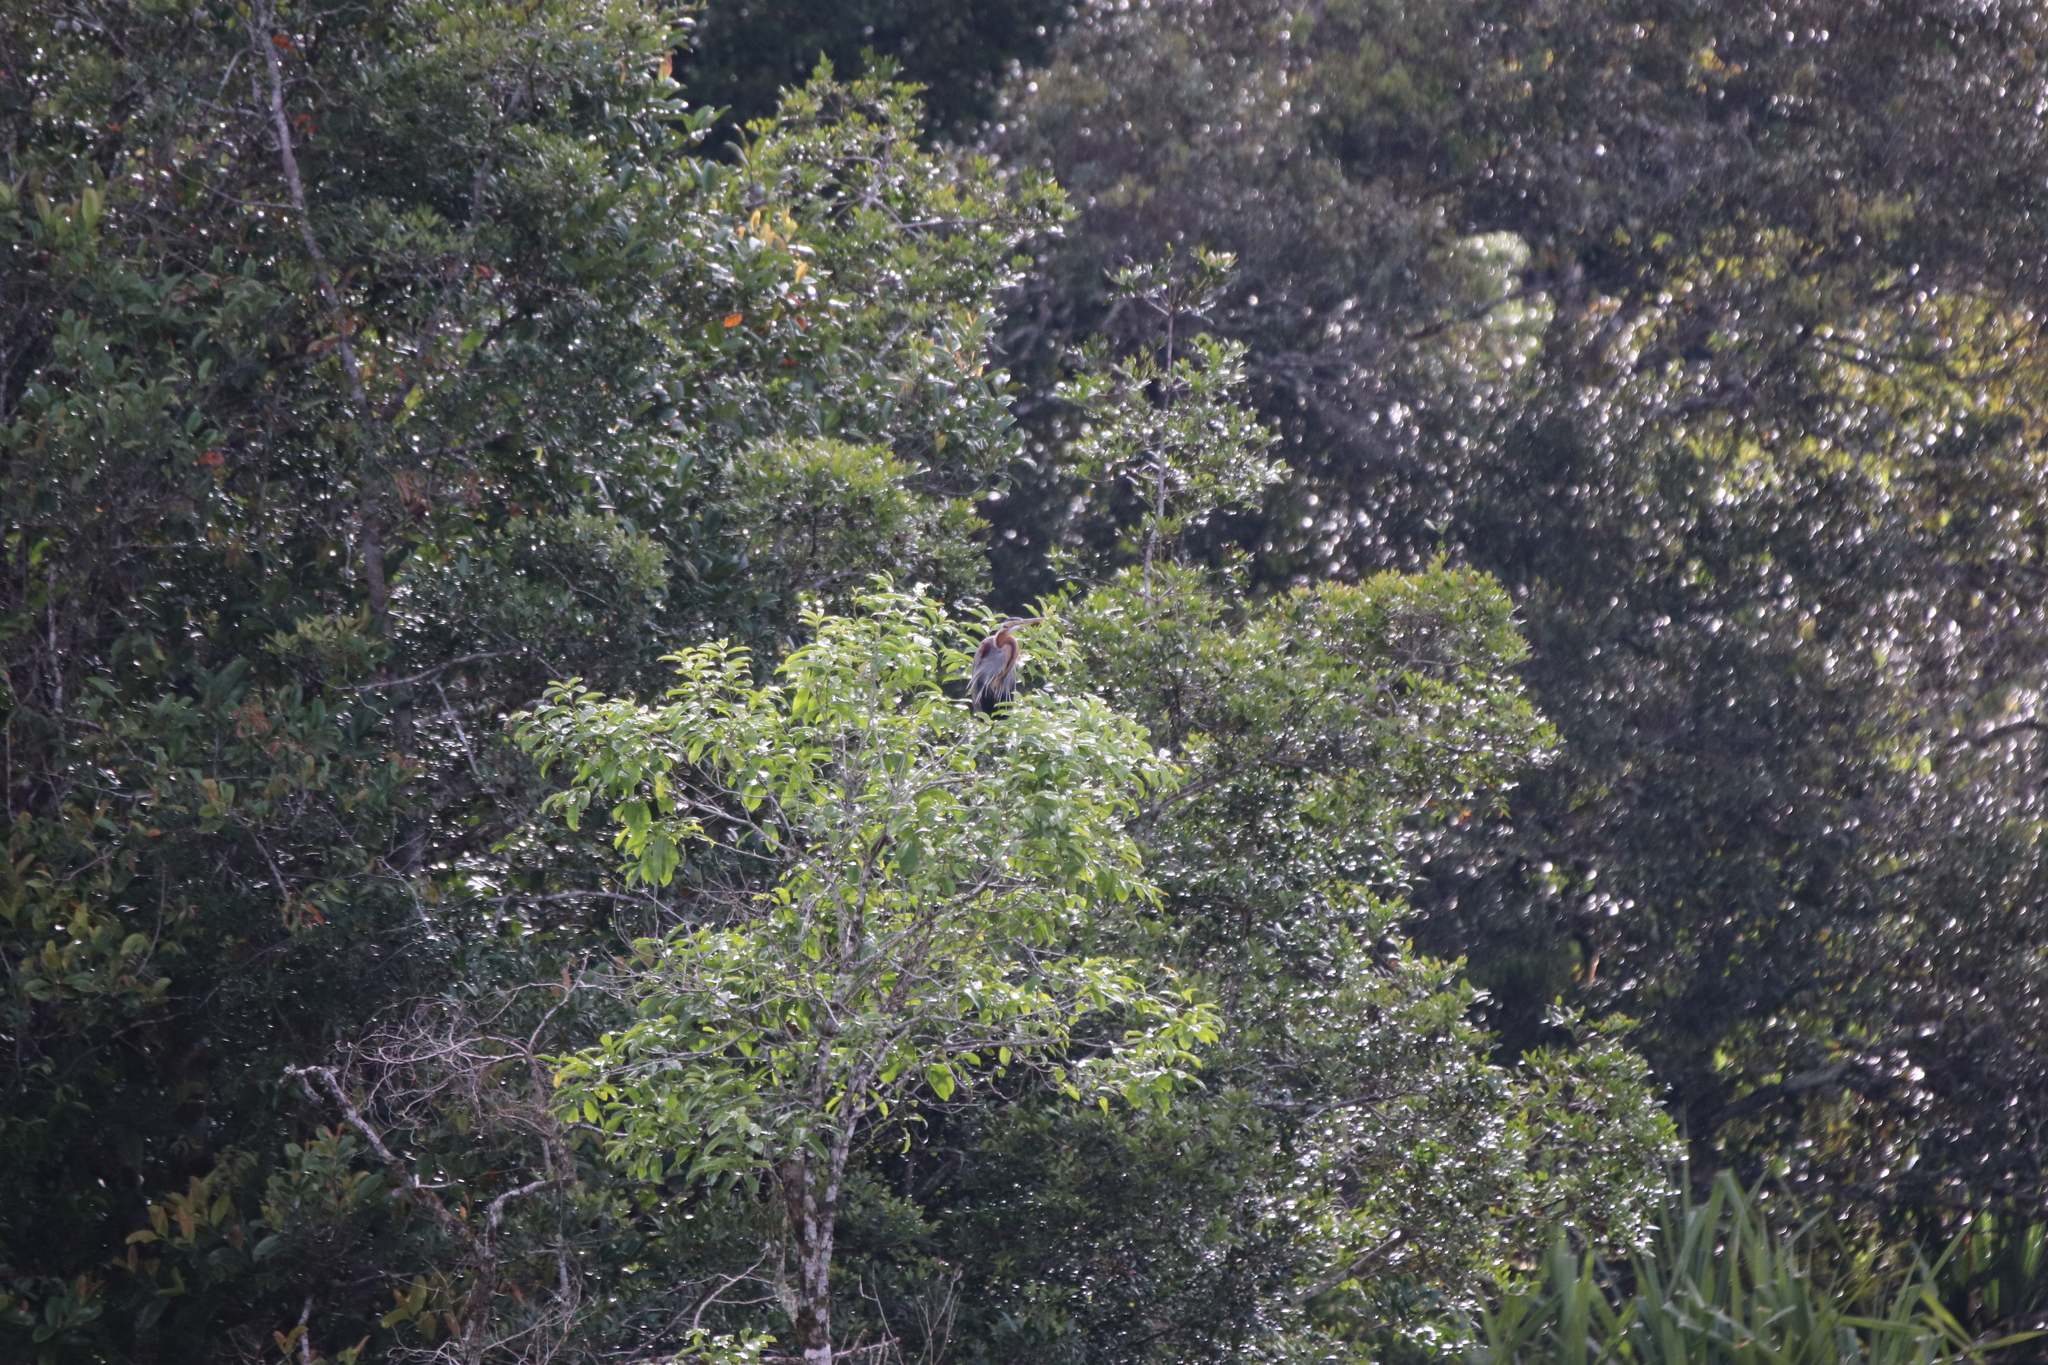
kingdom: Animalia
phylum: Chordata
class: Aves
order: Pelecaniformes
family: Ardeidae
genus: Ardea
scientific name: Ardea purpurea
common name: Purple heron
